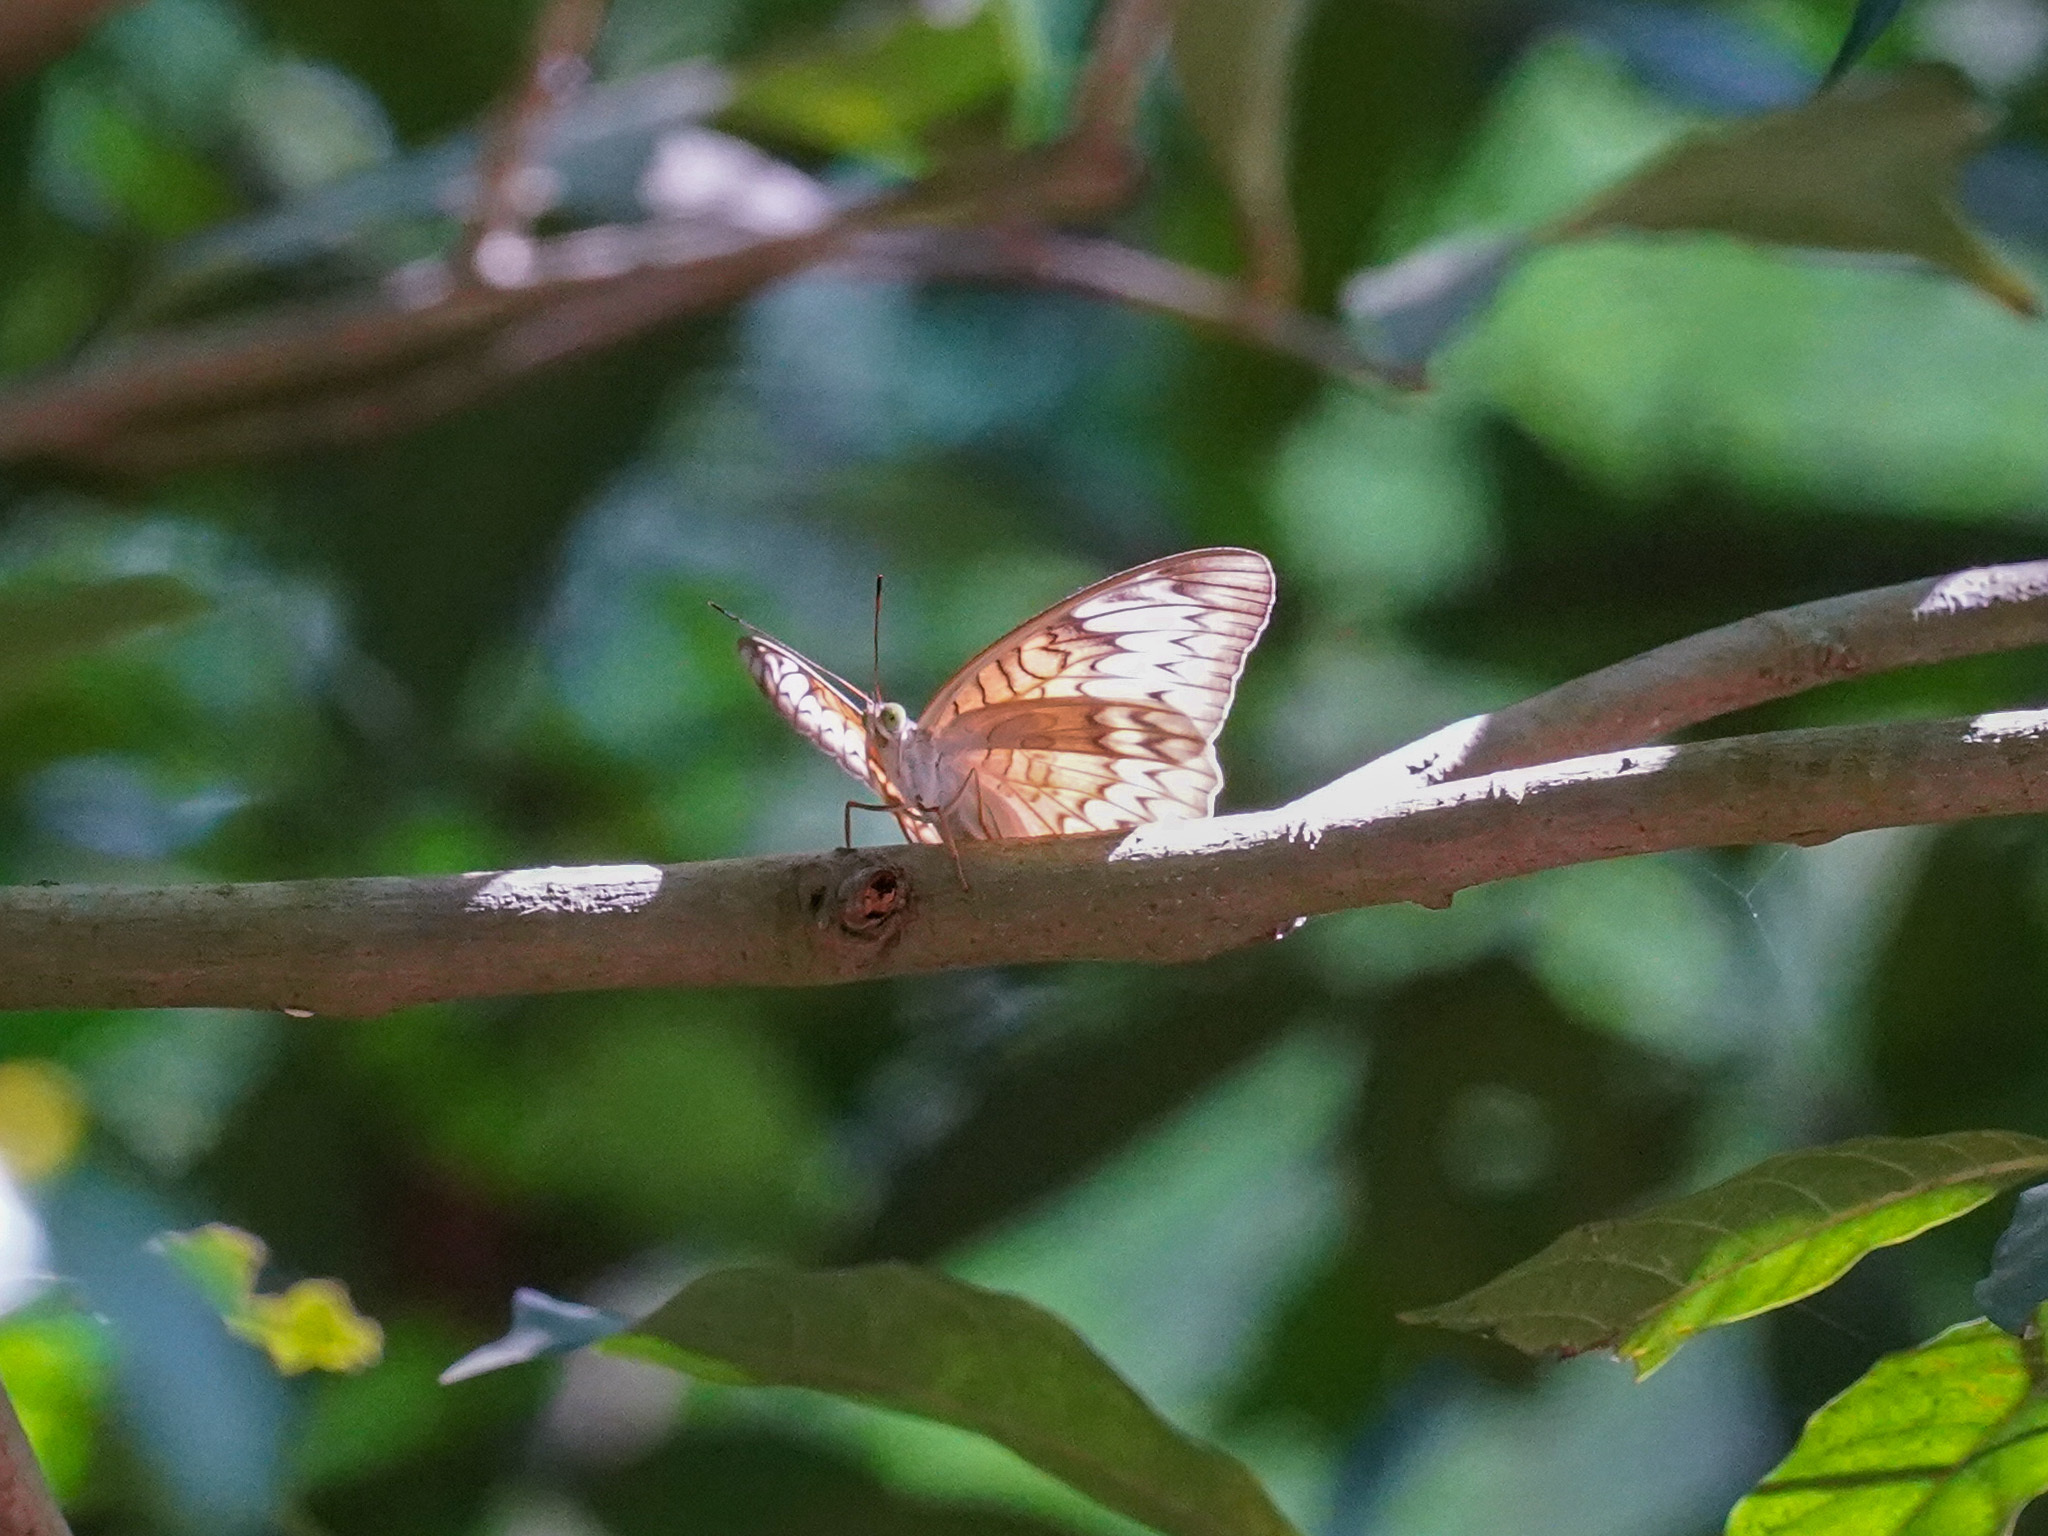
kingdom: Animalia
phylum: Arthropoda
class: Insecta
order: Lepidoptera
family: Nymphalidae
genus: Tanaecia
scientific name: Tanaecia pelea
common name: Malay viscount
